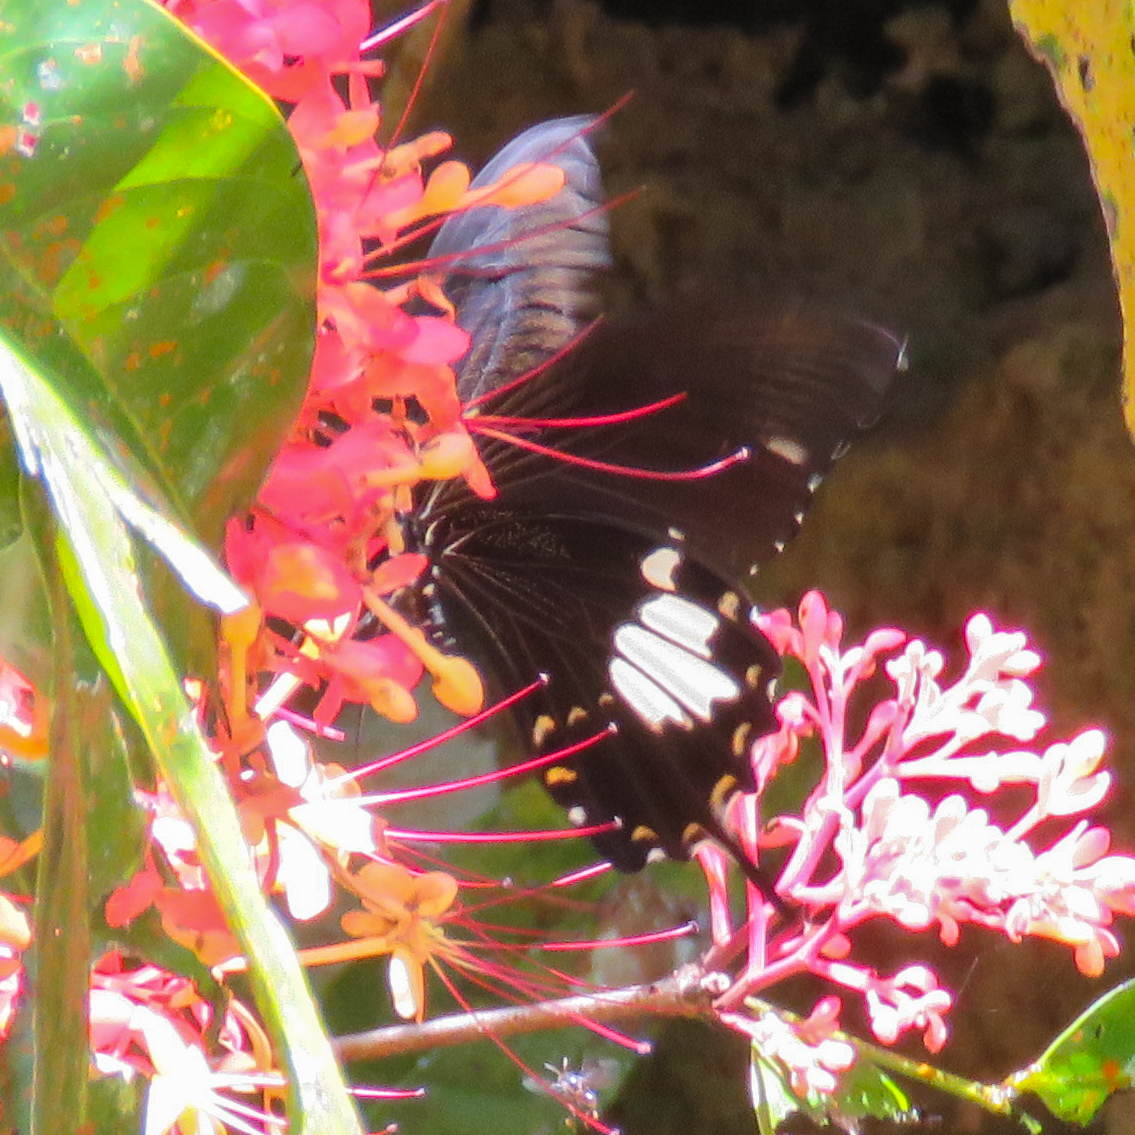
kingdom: Animalia
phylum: Arthropoda
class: Insecta
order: Lepidoptera
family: Papilionidae
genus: Atrophaneura
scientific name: Atrophaneura varuna
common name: Common batwing
